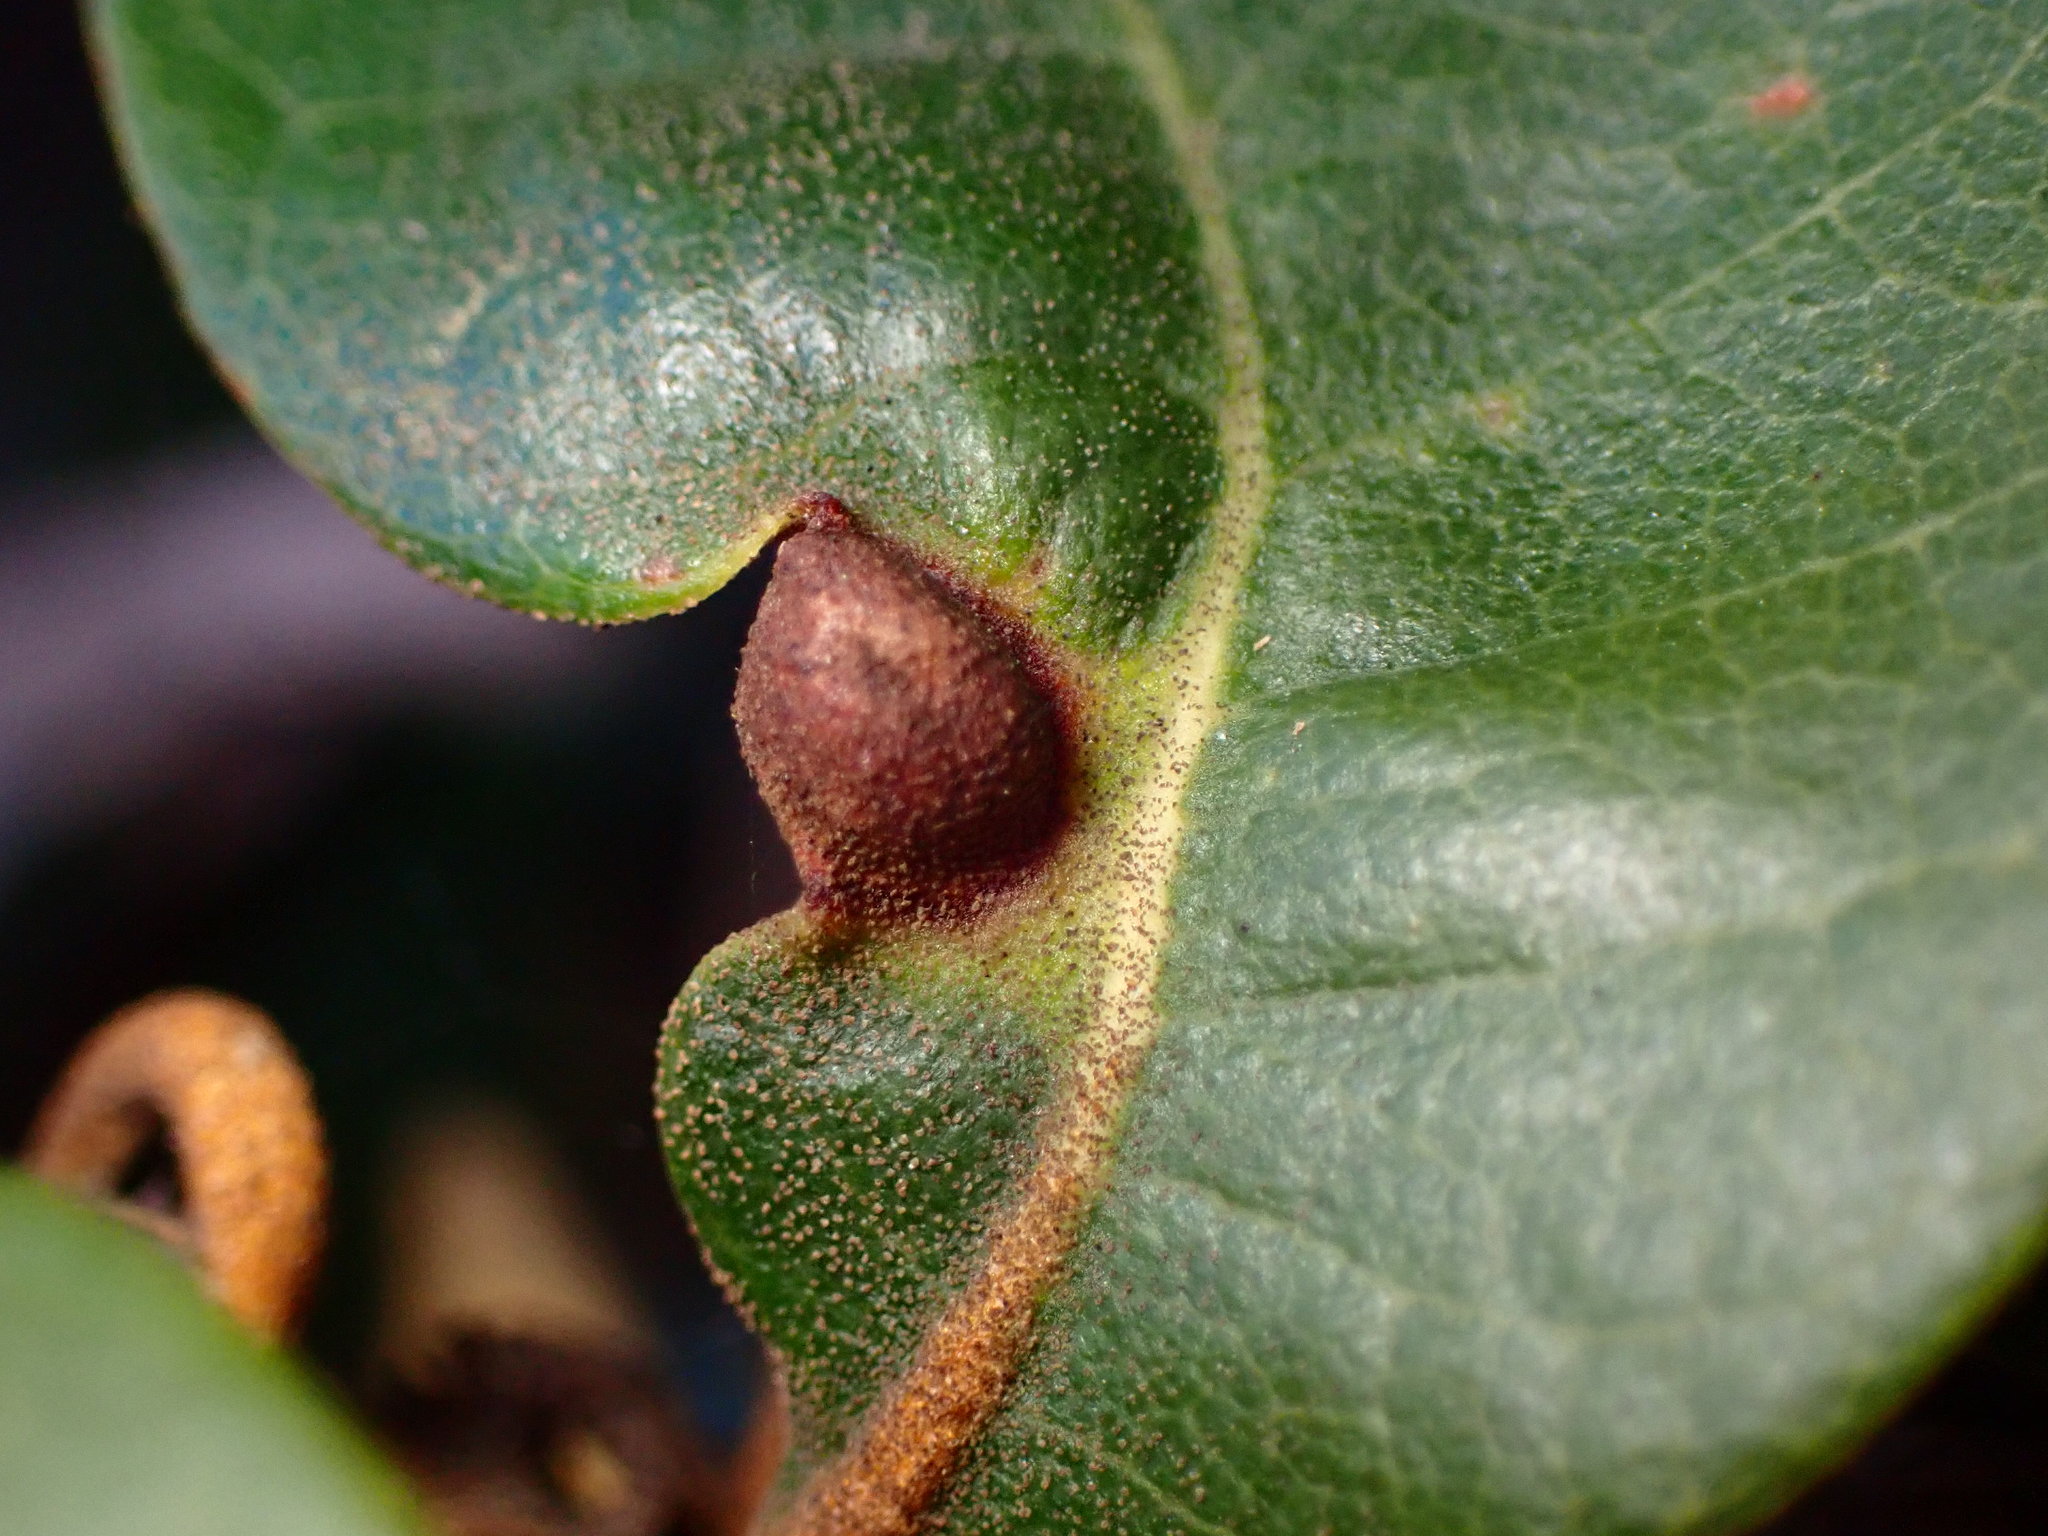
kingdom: Animalia
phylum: Arthropoda
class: Insecta
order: Hymenoptera
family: Cynipidae
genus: Dryocosmus
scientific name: Dryocosmus juliae
